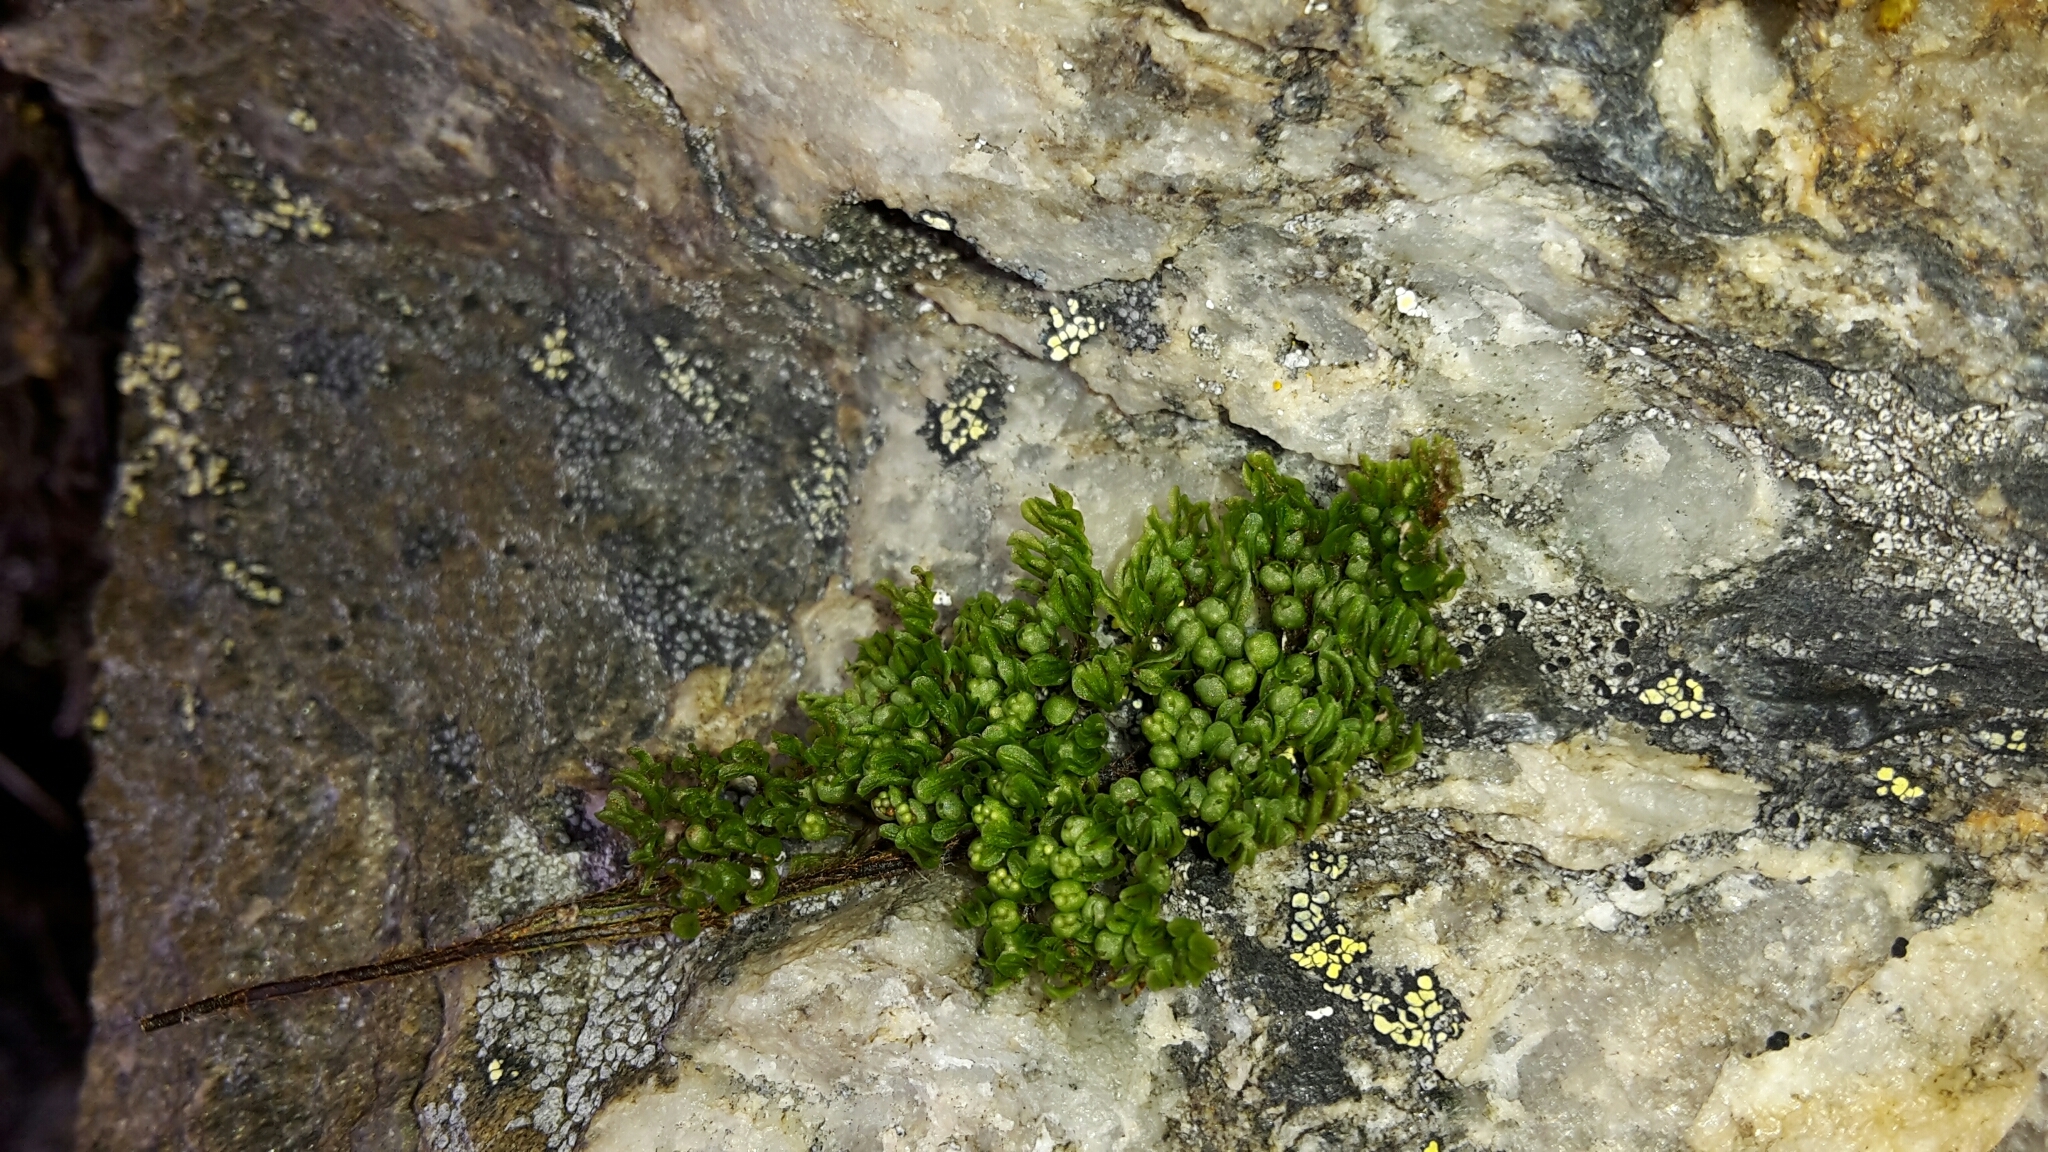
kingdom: Plantae
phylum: Tracheophyta
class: Polypodiopsida
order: Hymenophyllales
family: Hymenophyllaceae
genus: Hymenophyllum
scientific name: Hymenophyllum villosum
